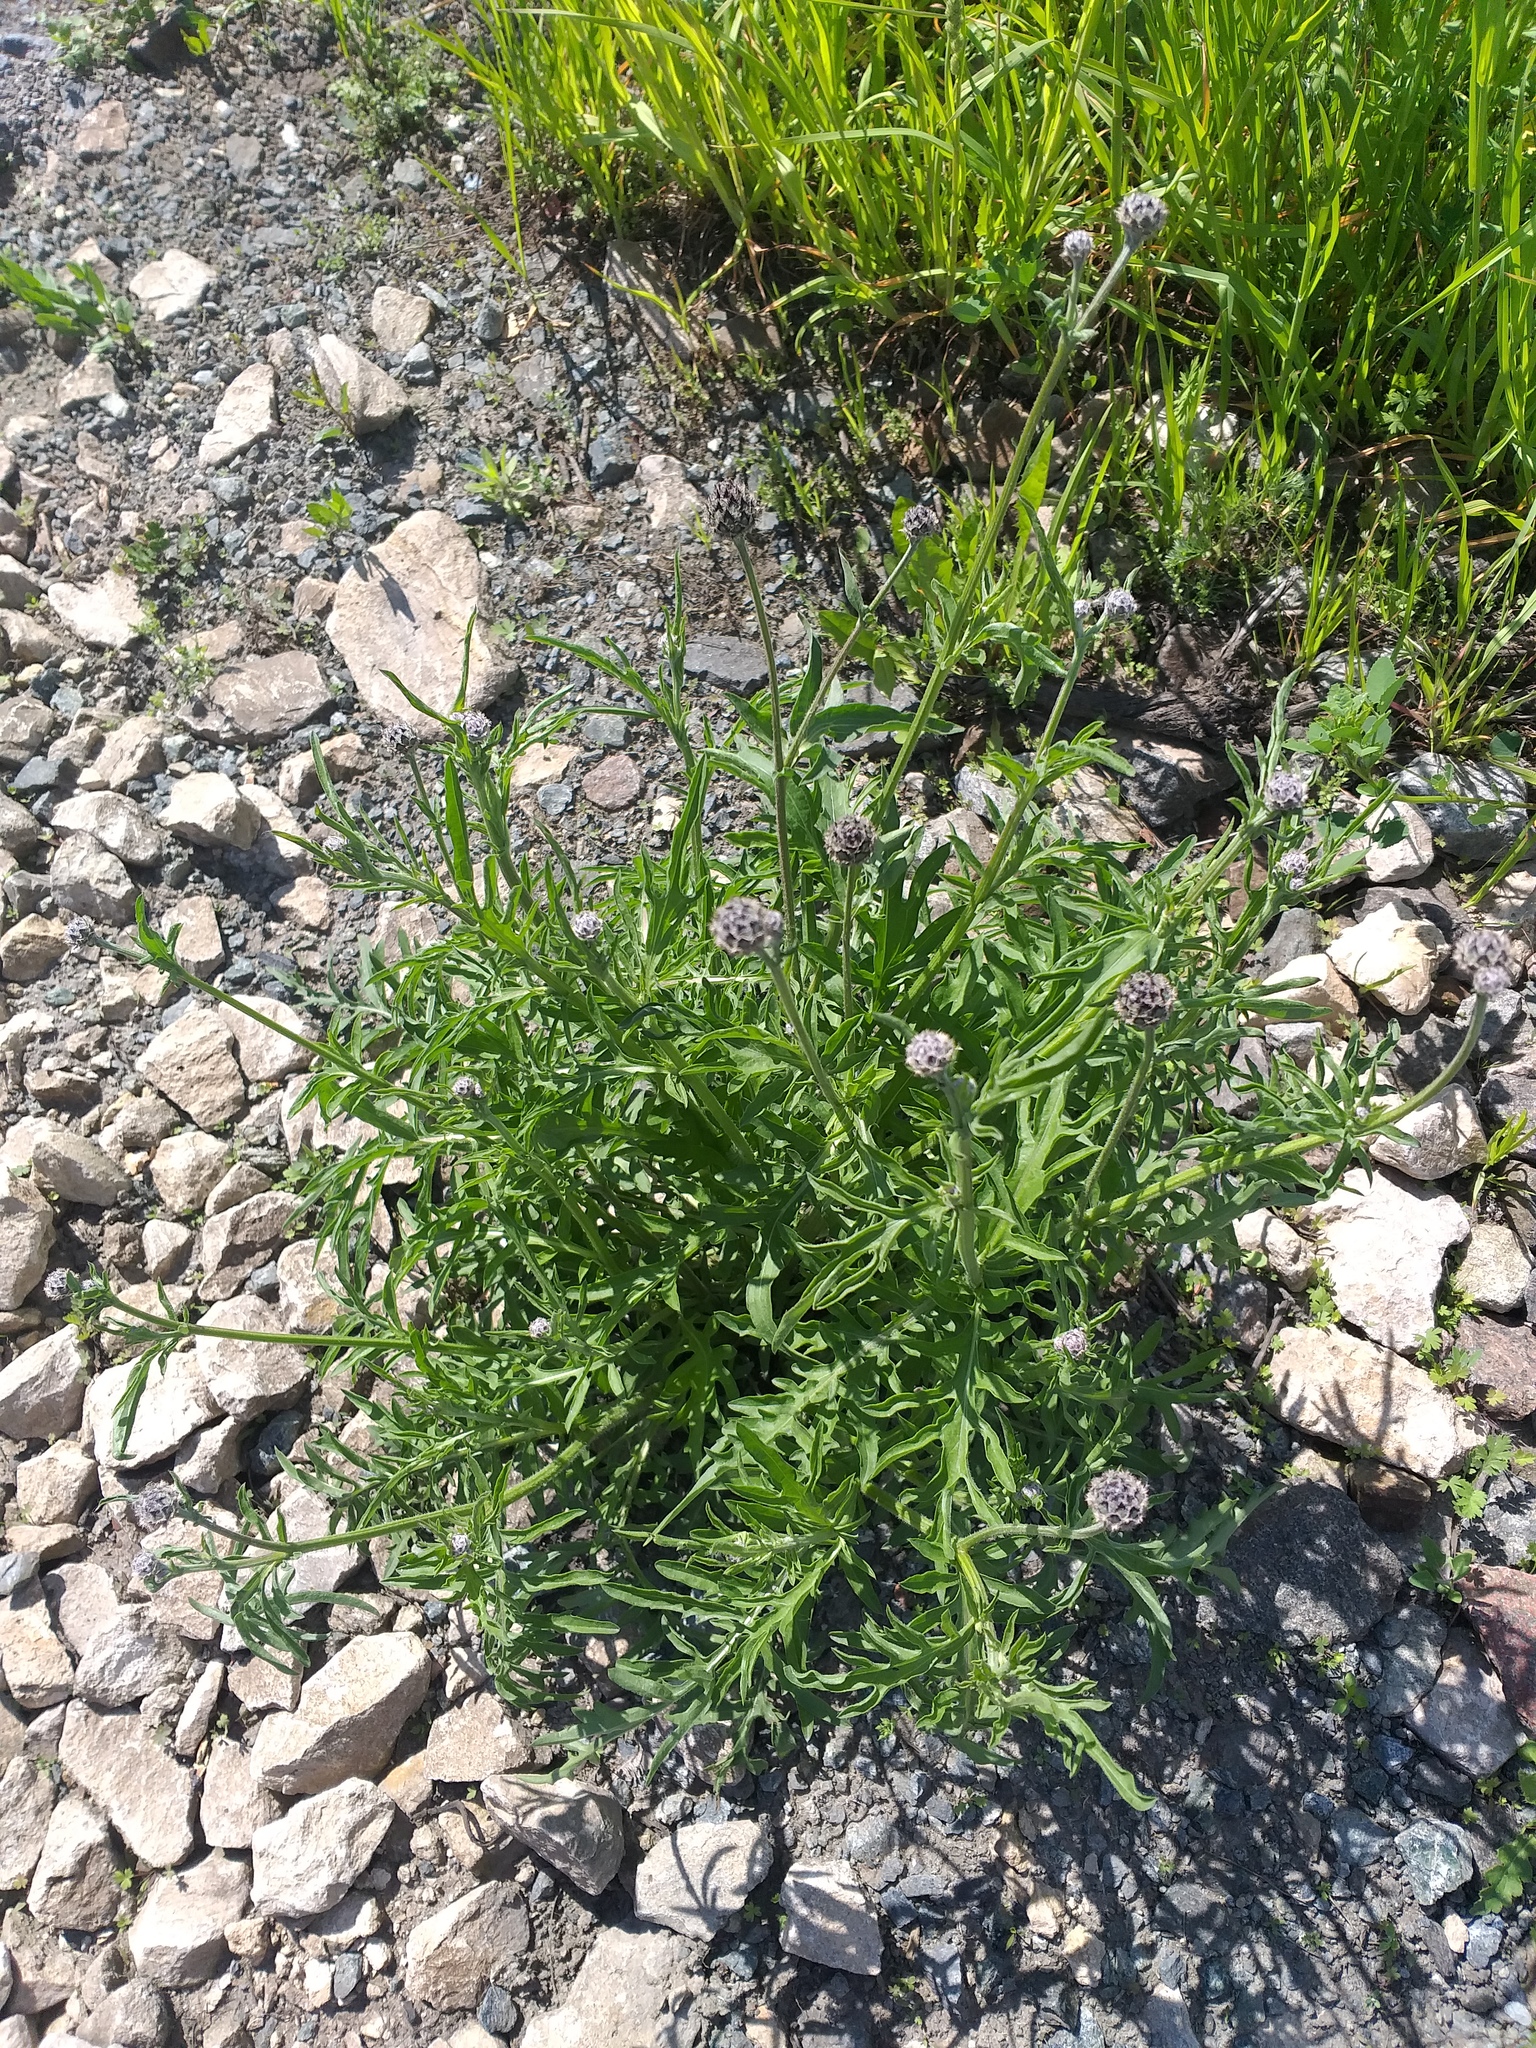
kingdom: Plantae
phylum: Tracheophyta
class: Magnoliopsida
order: Asterales
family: Asteraceae
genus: Centaurea
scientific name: Centaurea scabiosa
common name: Greater knapweed
